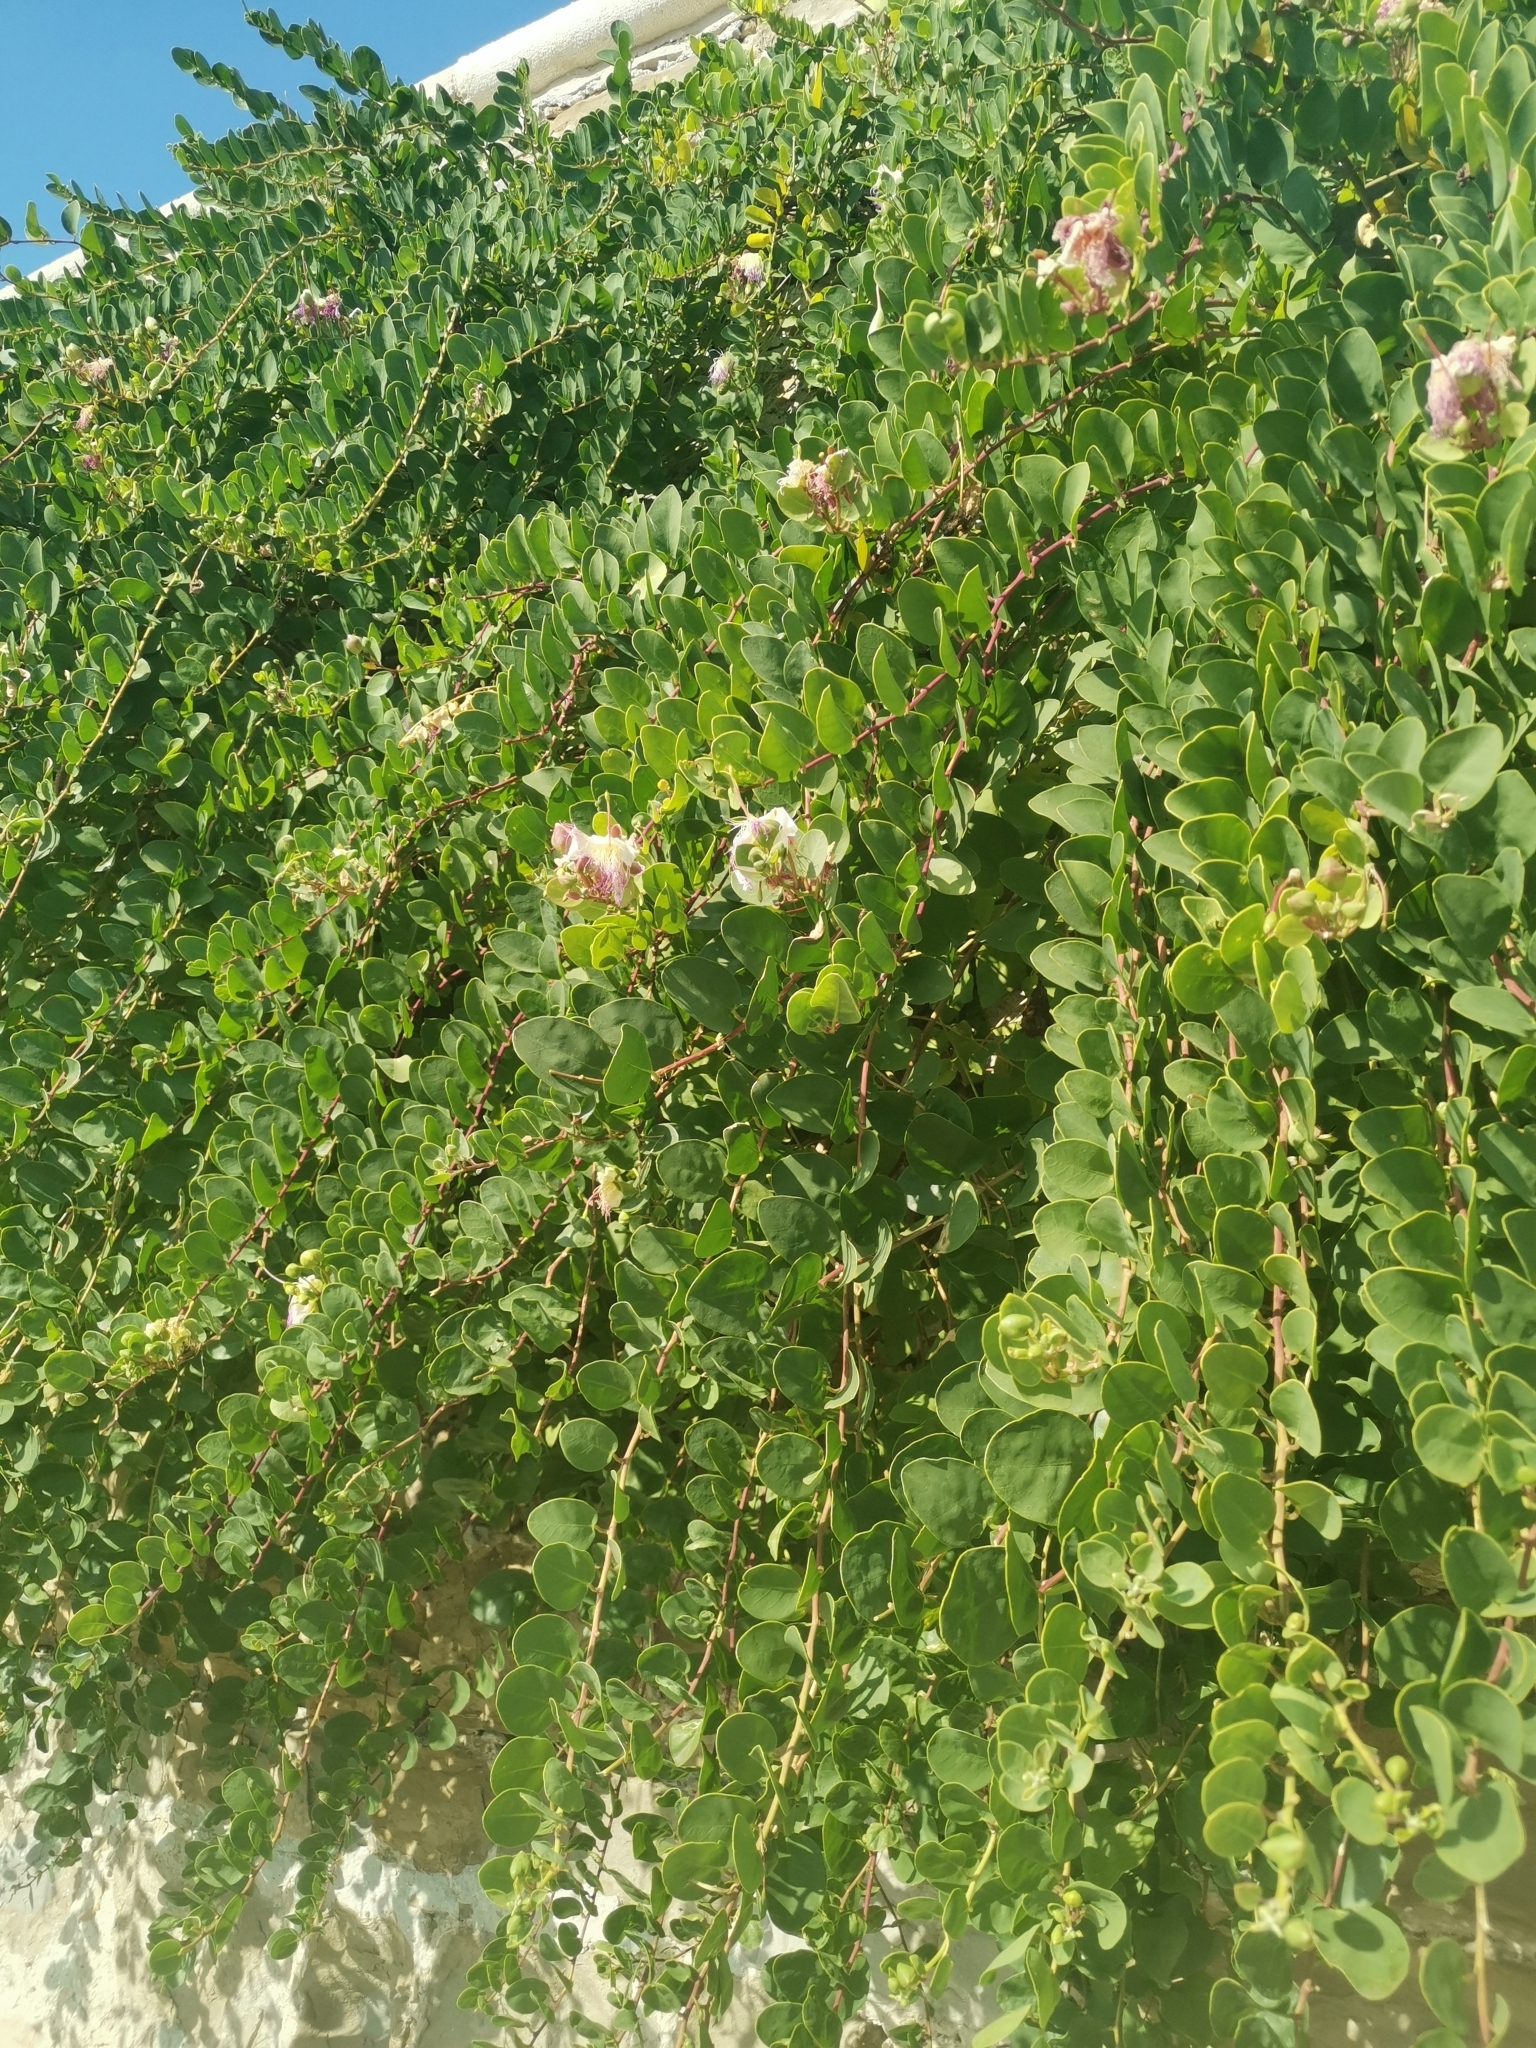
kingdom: Plantae
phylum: Tracheophyta
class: Magnoliopsida
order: Brassicales
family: Capparaceae
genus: Capparis
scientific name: Capparis spinosa
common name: Caper
